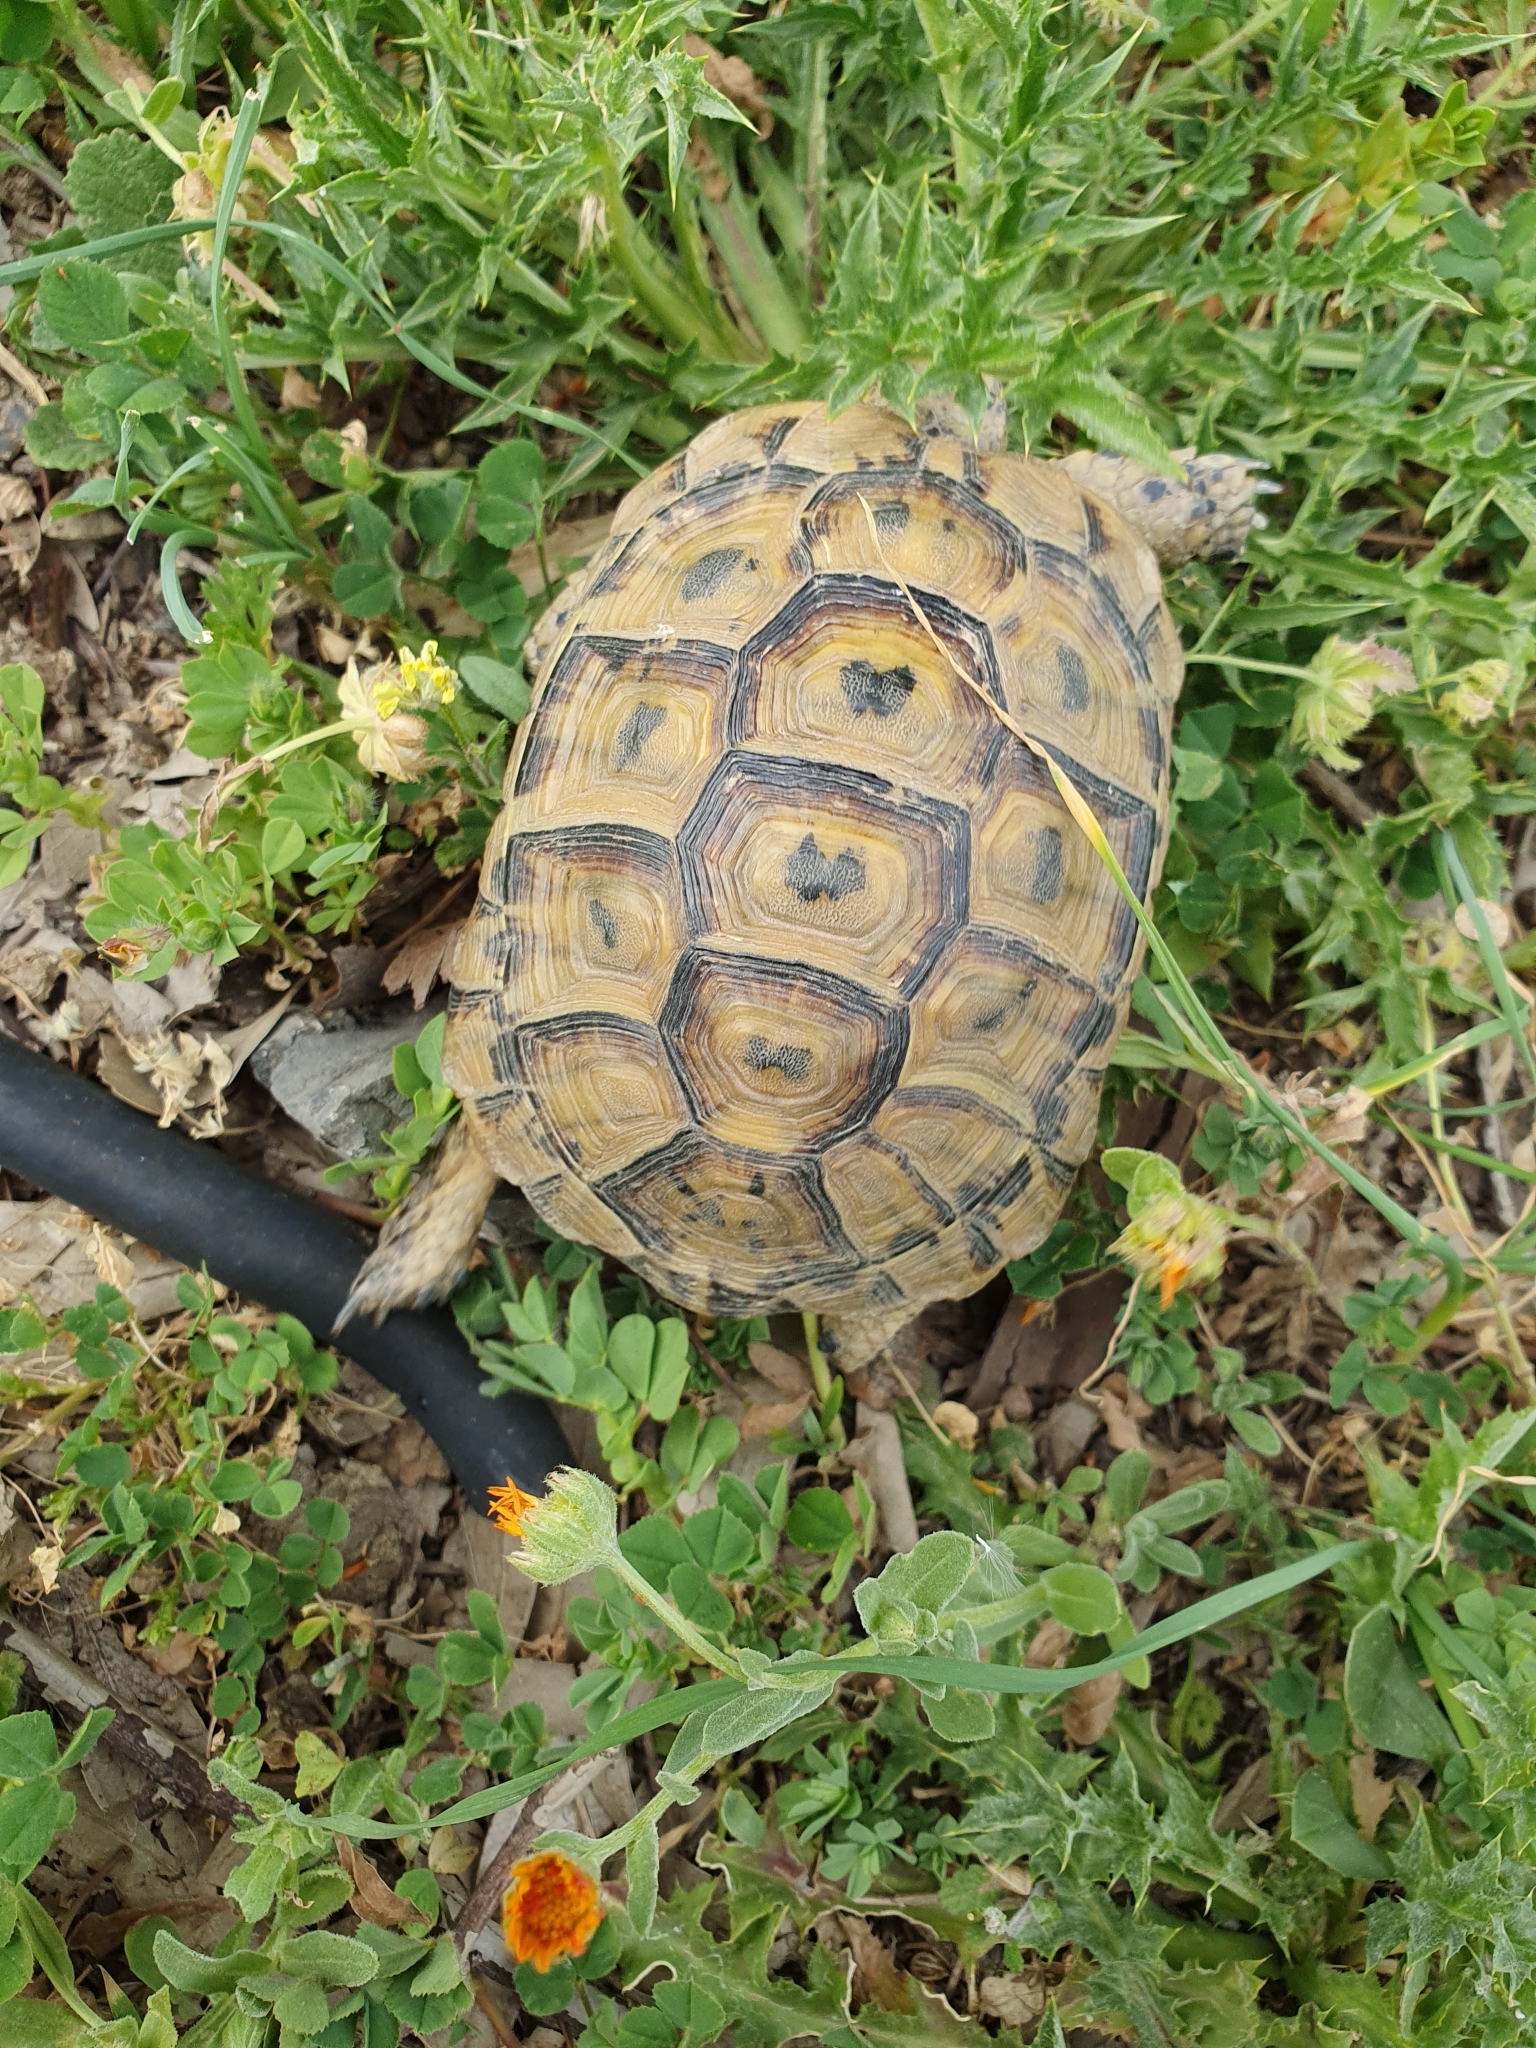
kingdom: Animalia
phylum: Chordata
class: Testudines
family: Testudinidae
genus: Testudo
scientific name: Testudo graeca
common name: Common tortoise
